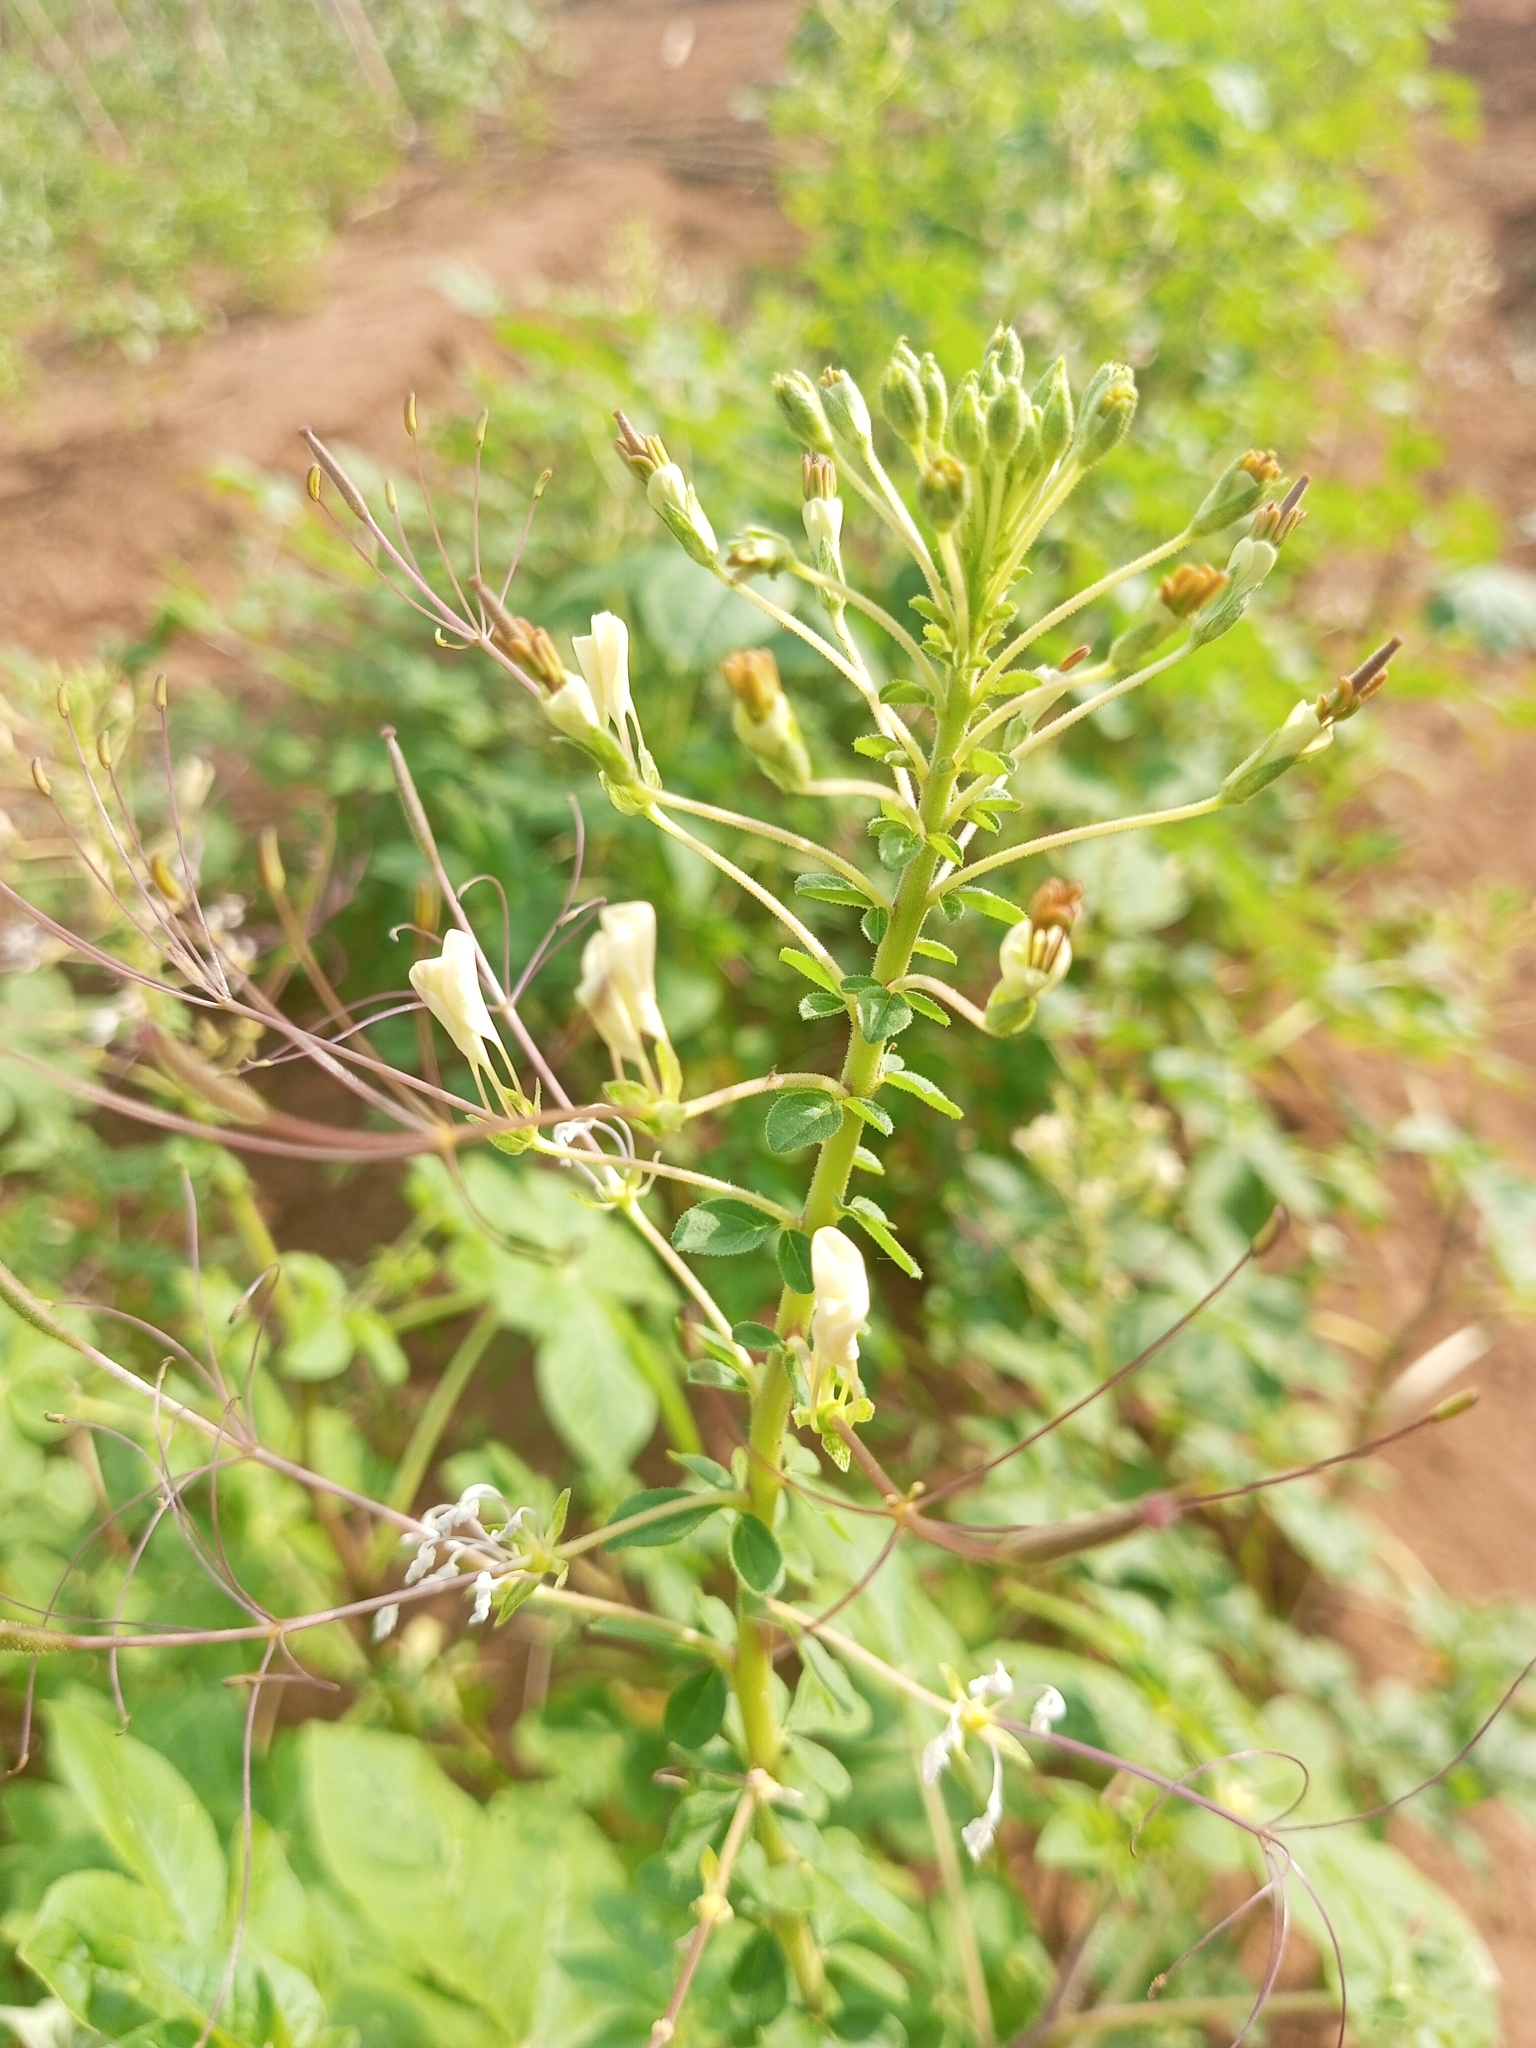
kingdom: Plantae
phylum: Tracheophyta
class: Magnoliopsida
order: Brassicales
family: Cleomaceae
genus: Gynandropsis
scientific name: Gynandropsis gynandra
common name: Spiderwisp
